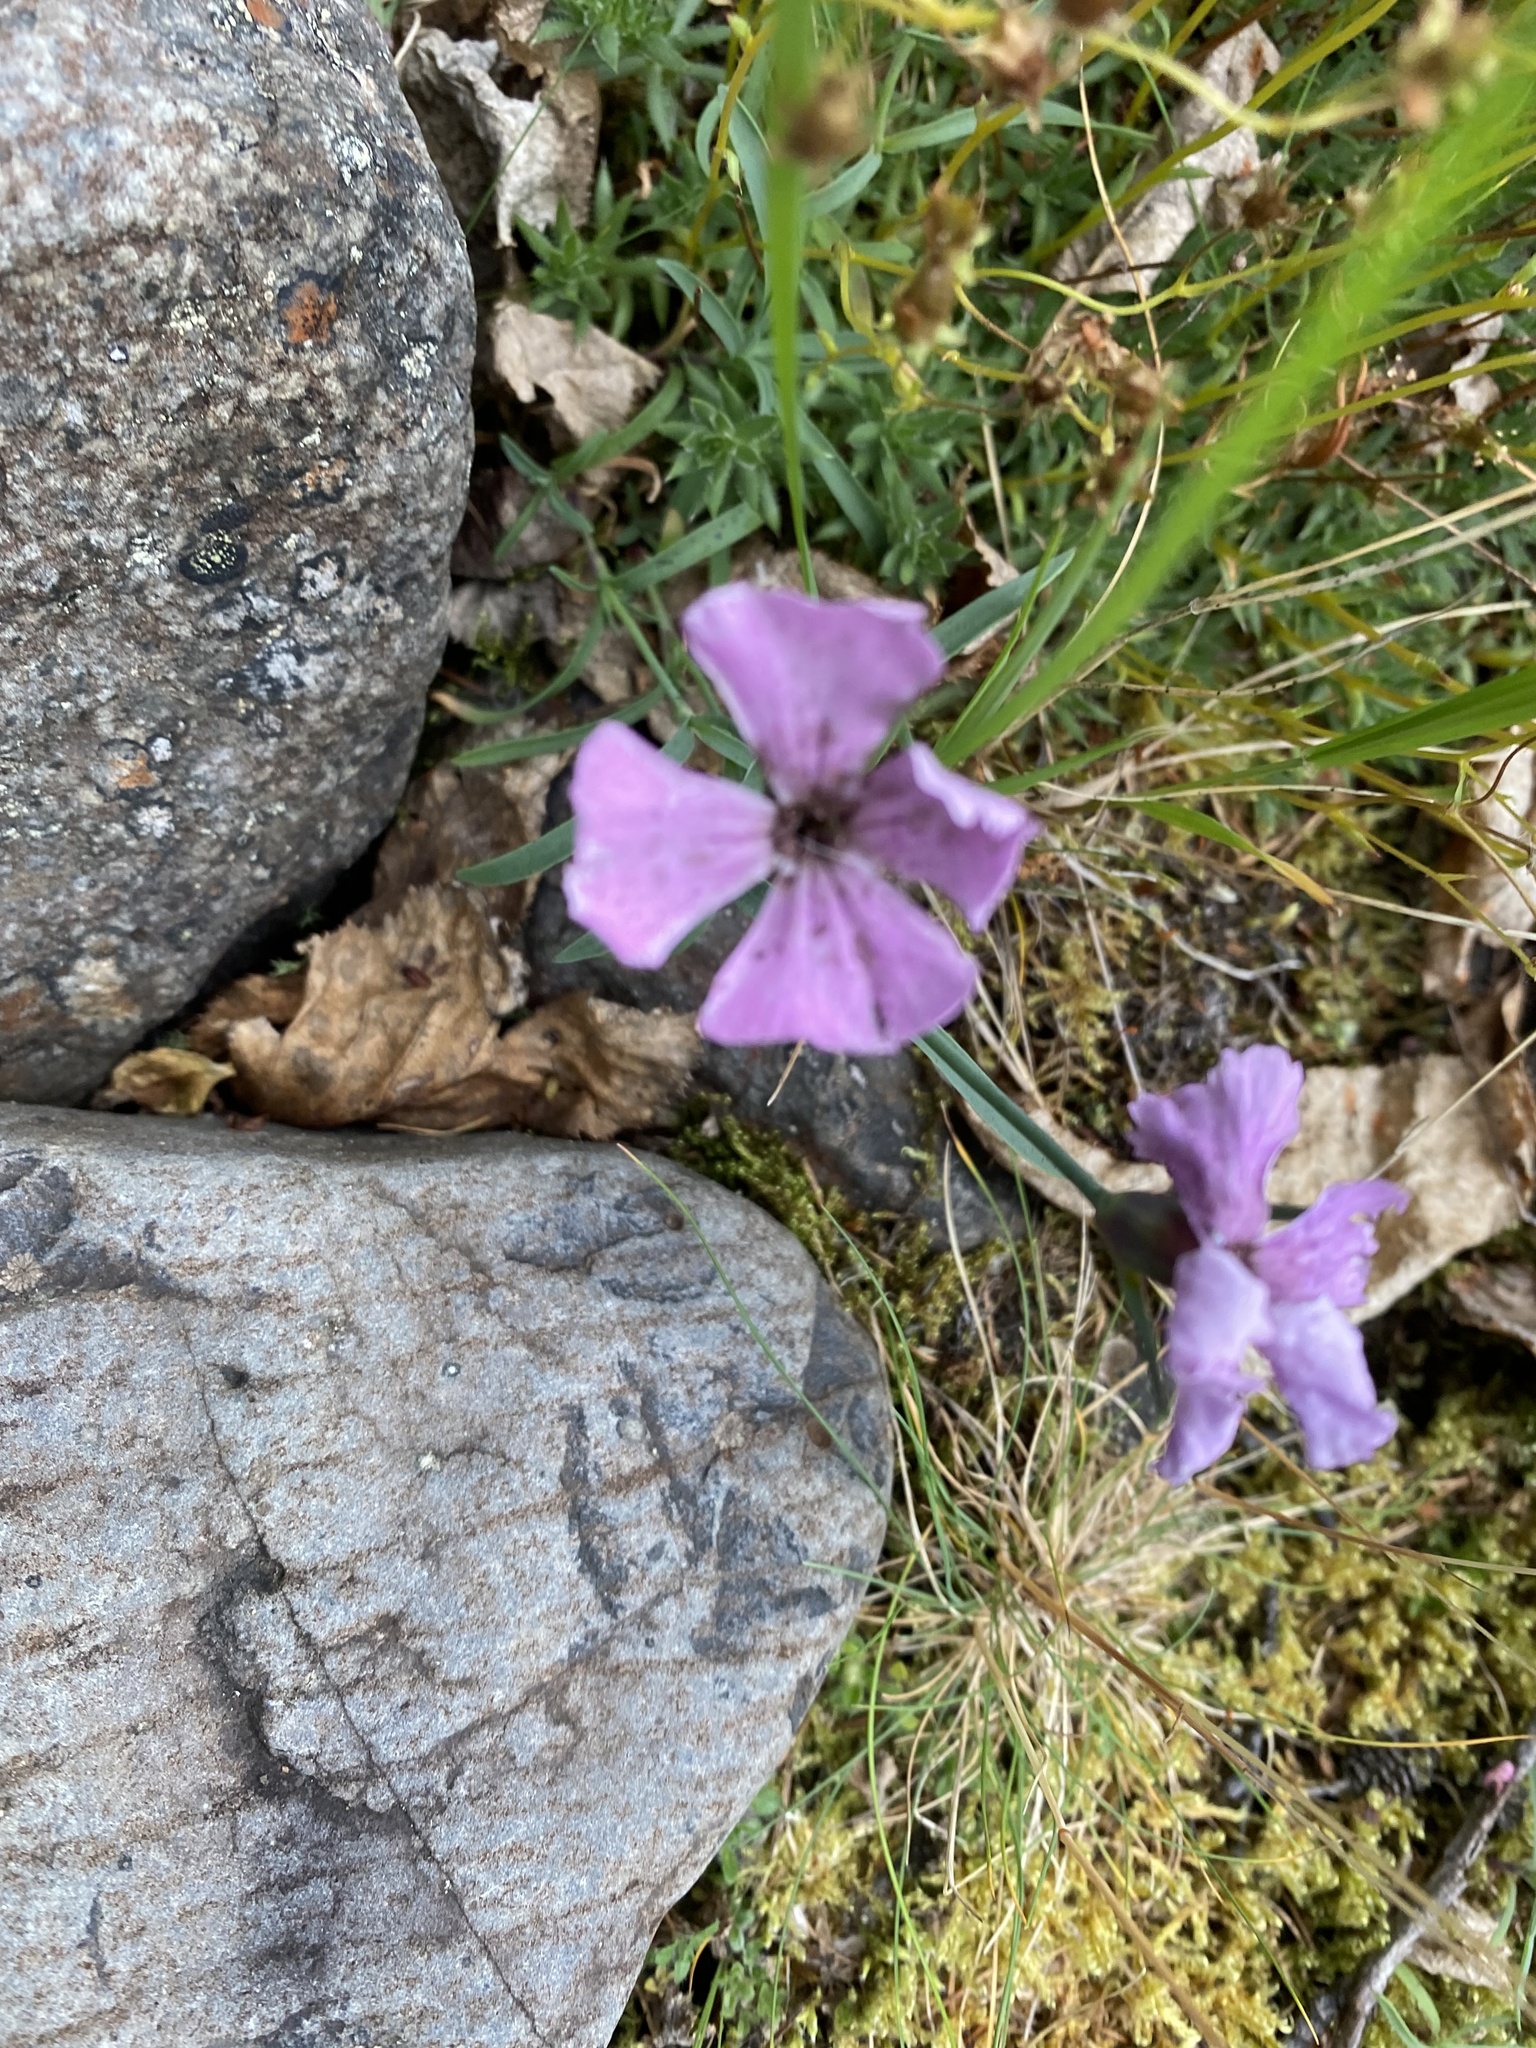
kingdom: Plantae
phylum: Tracheophyta
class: Magnoliopsida
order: Caryophyllales
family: Caryophyllaceae
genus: Dianthus
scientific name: Dianthus repens
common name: Northern pink
